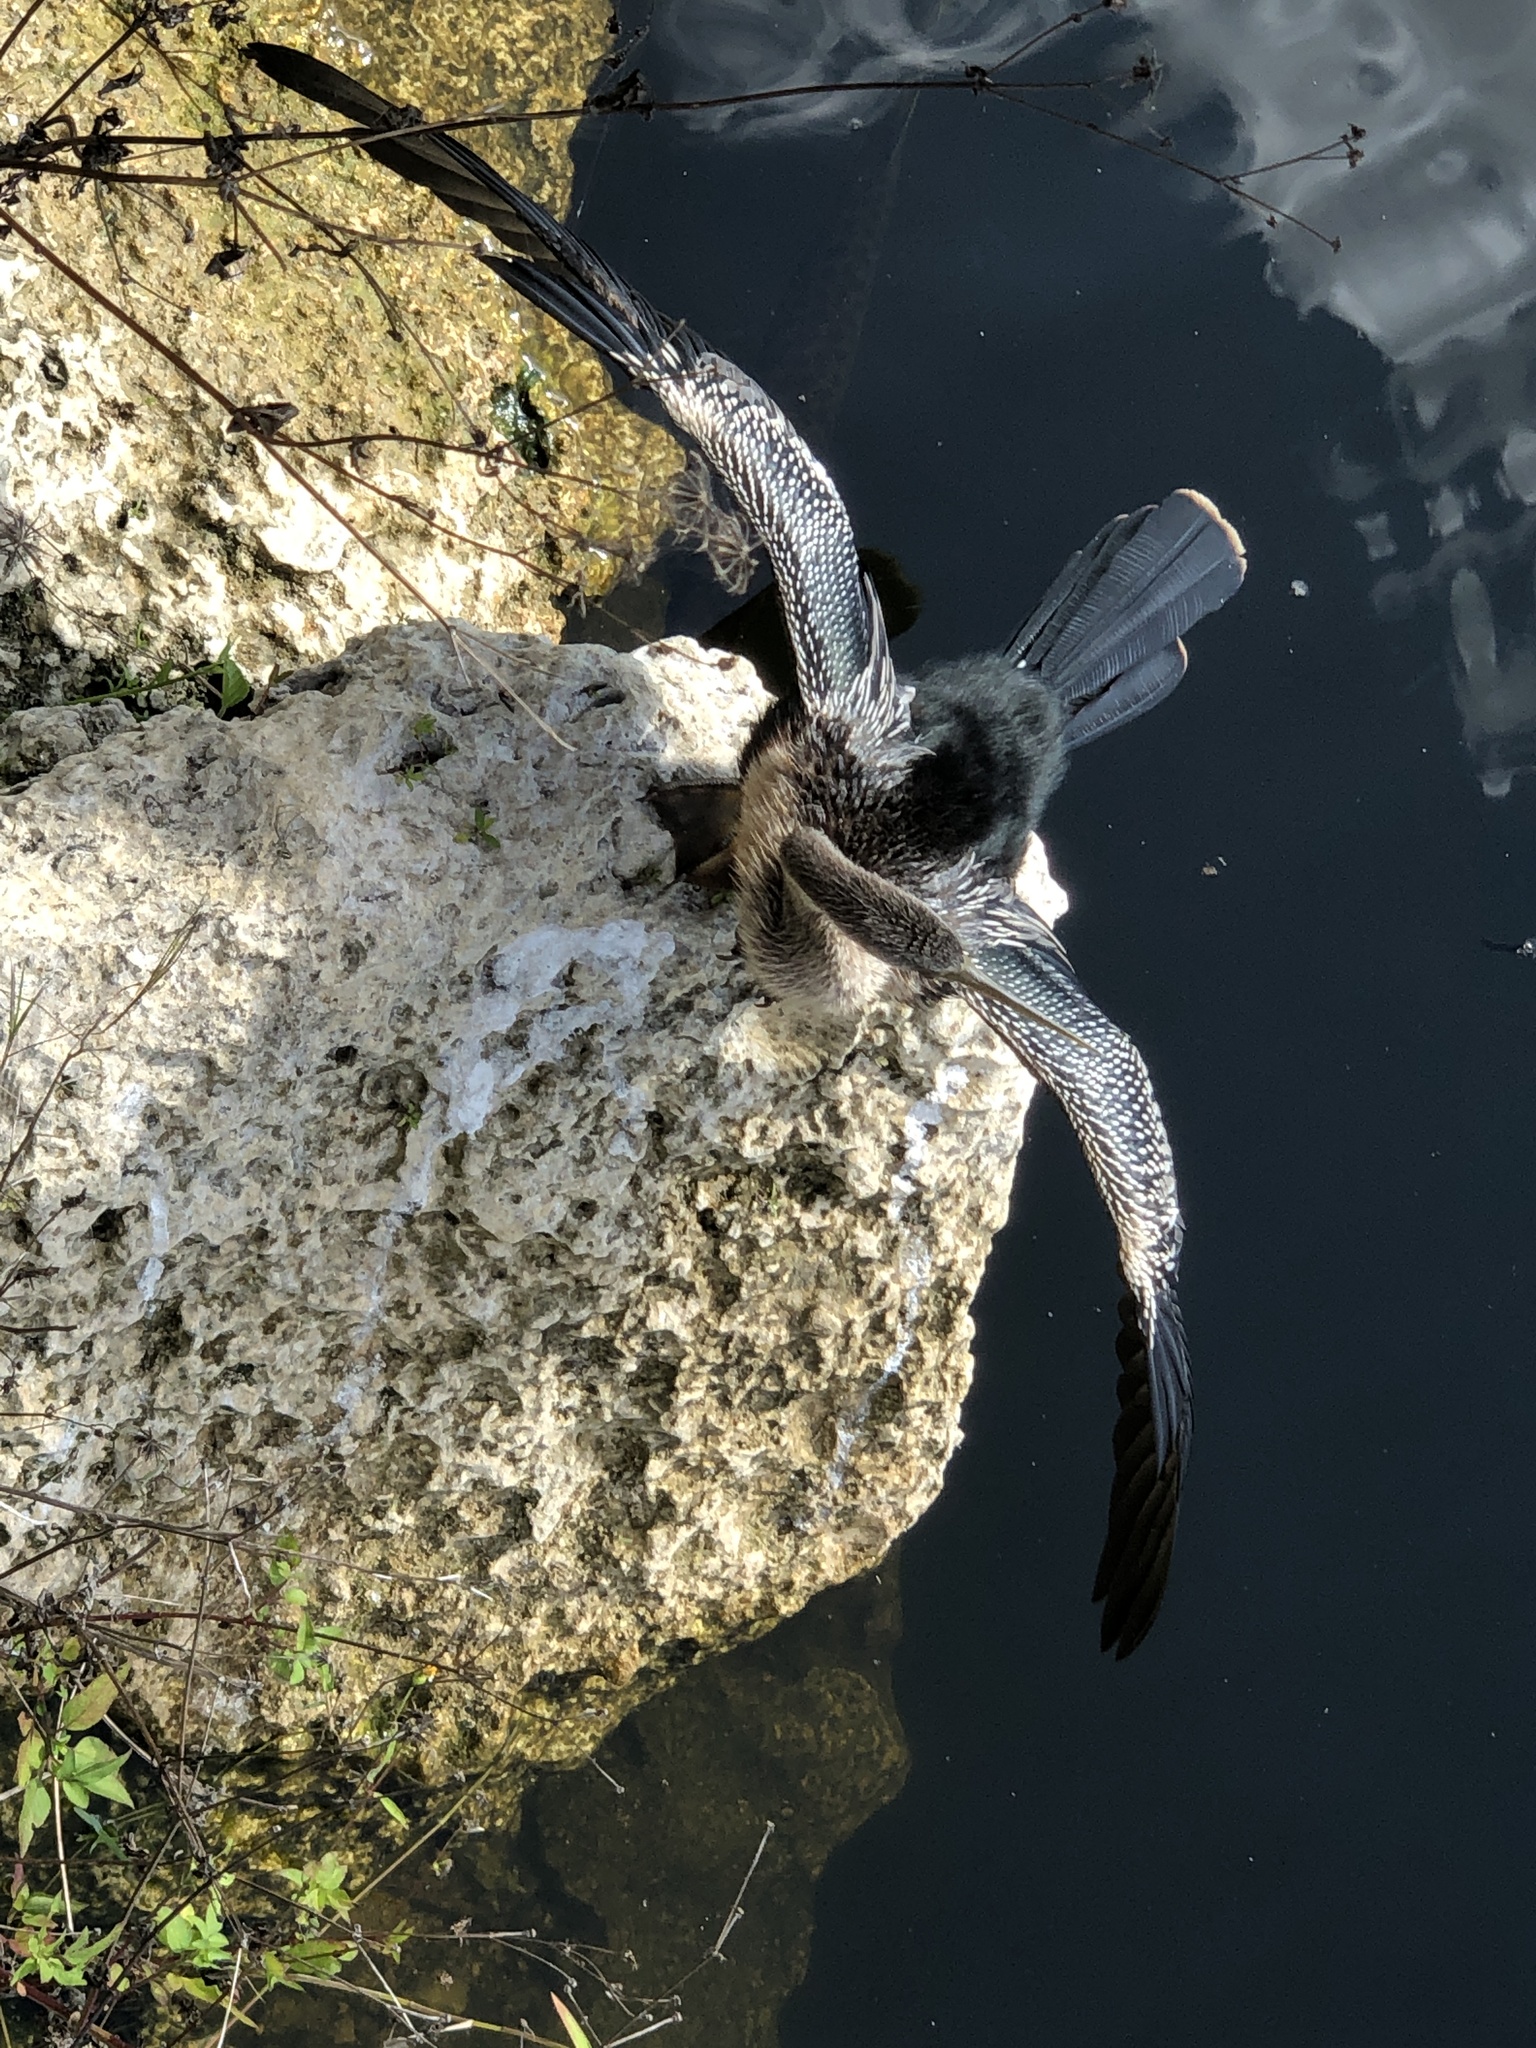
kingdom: Animalia
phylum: Chordata
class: Aves
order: Suliformes
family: Anhingidae
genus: Anhinga
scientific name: Anhinga anhinga
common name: Anhinga
